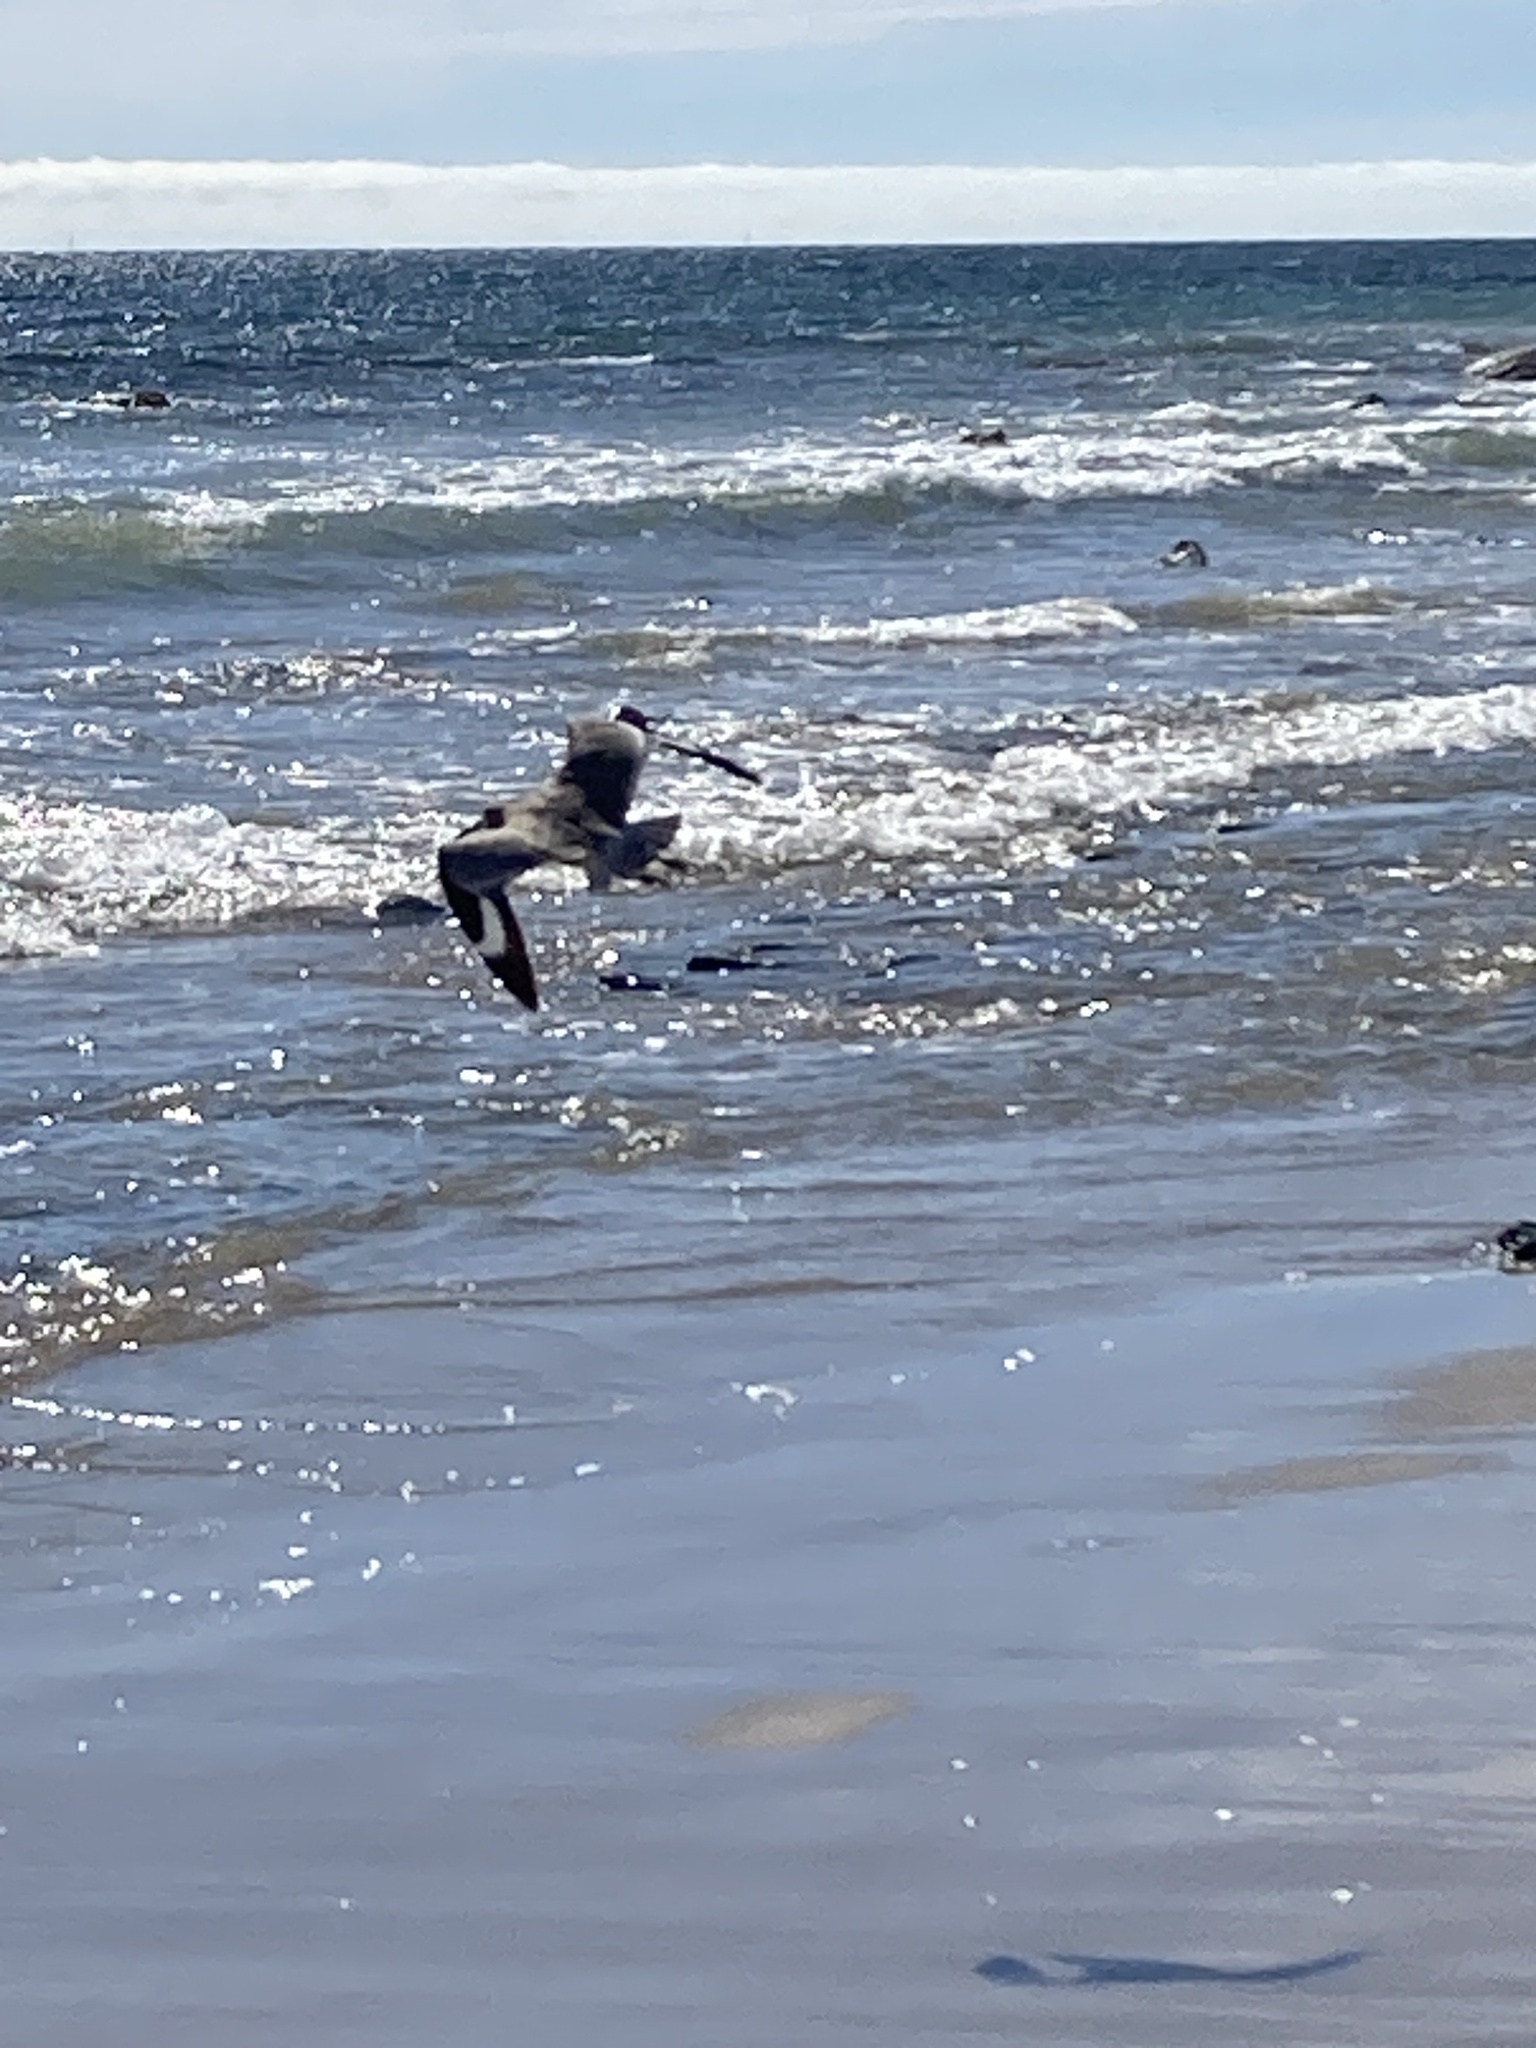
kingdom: Animalia
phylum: Chordata
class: Aves
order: Charadriiformes
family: Scolopacidae
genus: Tringa
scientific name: Tringa semipalmata
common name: Willet
